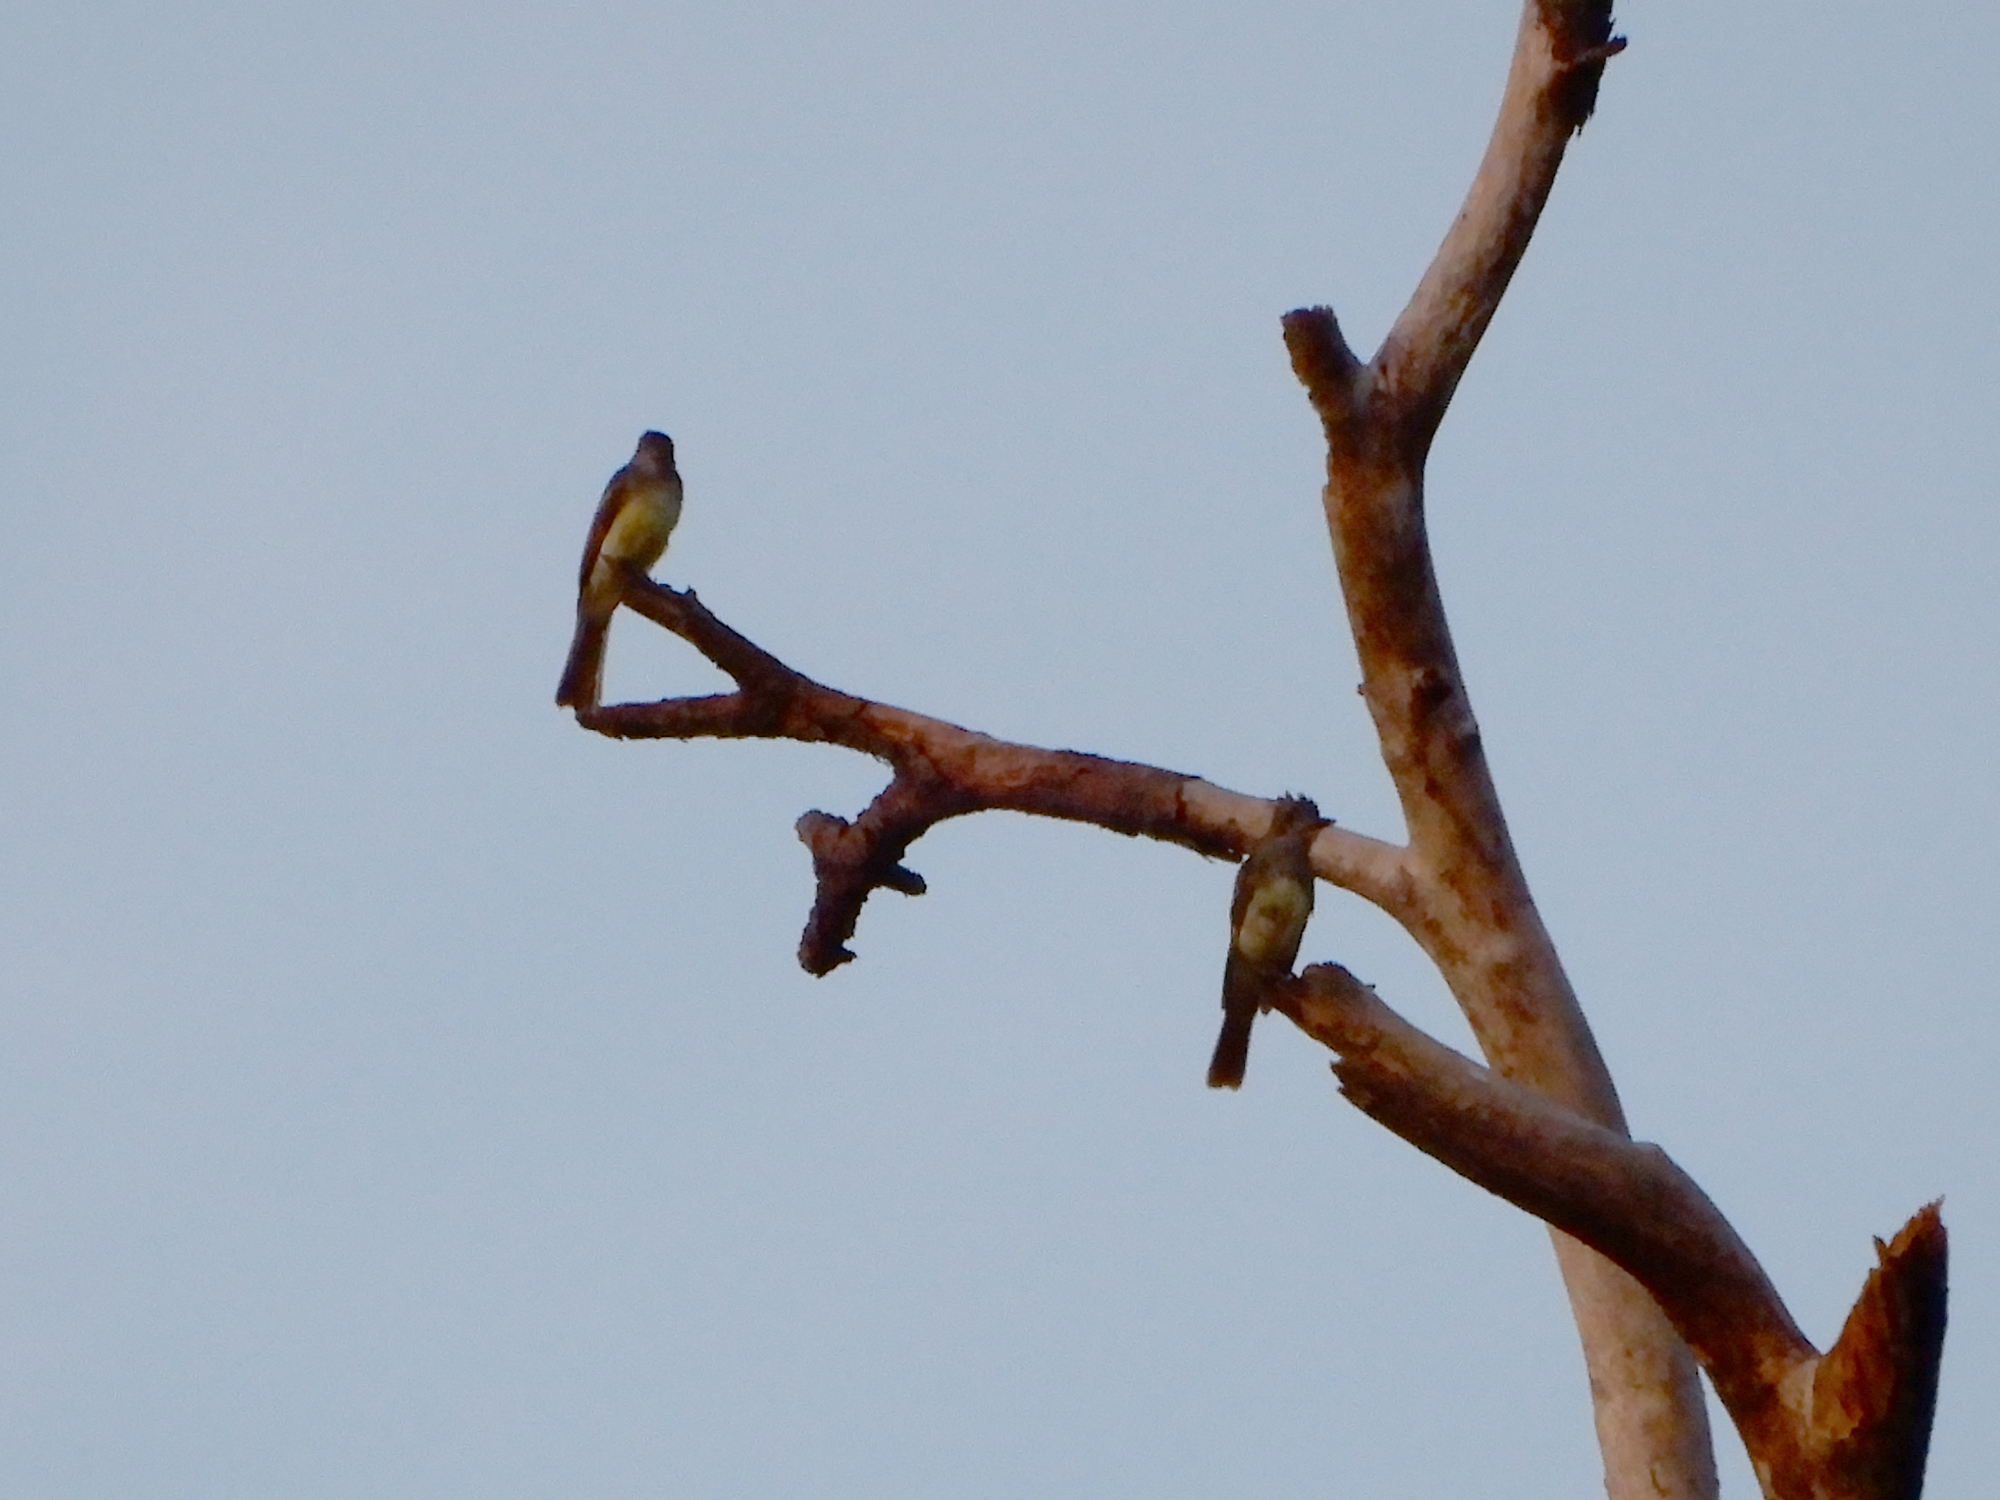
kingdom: Animalia
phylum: Chordata
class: Aves
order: Passeriformes
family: Tyrannidae
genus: Myiarchus
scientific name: Myiarchus crinitus
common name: Great crested flycatcher
